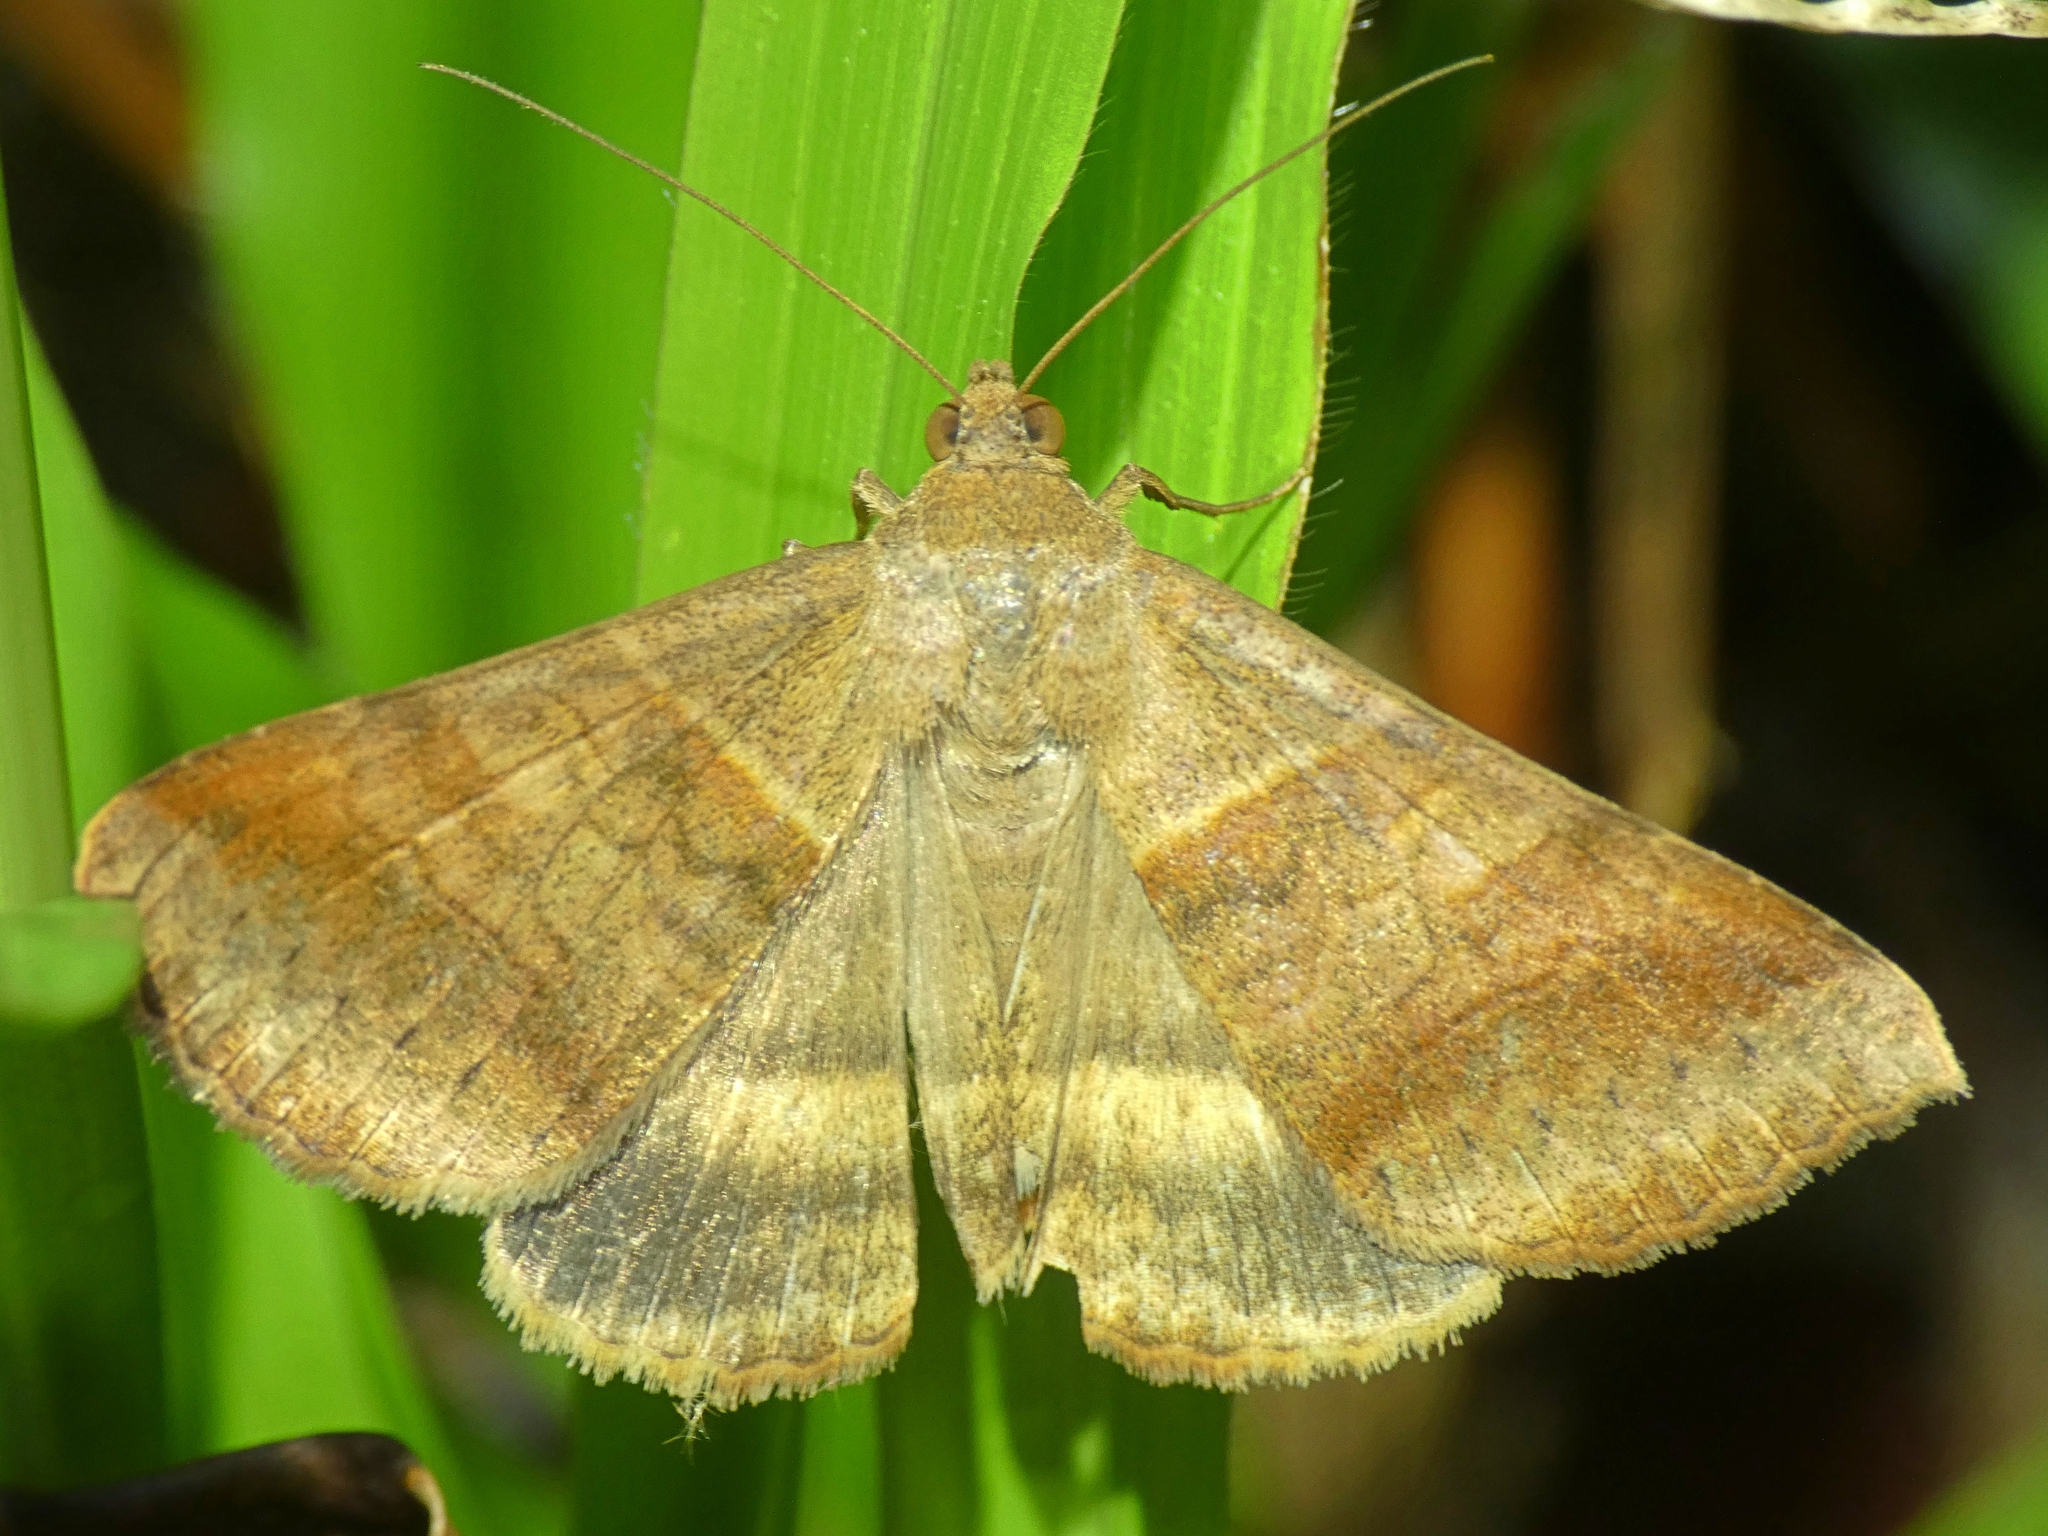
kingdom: Animalia
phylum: Arthropoda
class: Insecta
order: Lepidoptera
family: Erebidae
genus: Mocis
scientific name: Mocis trifasciata
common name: Triple-barred
